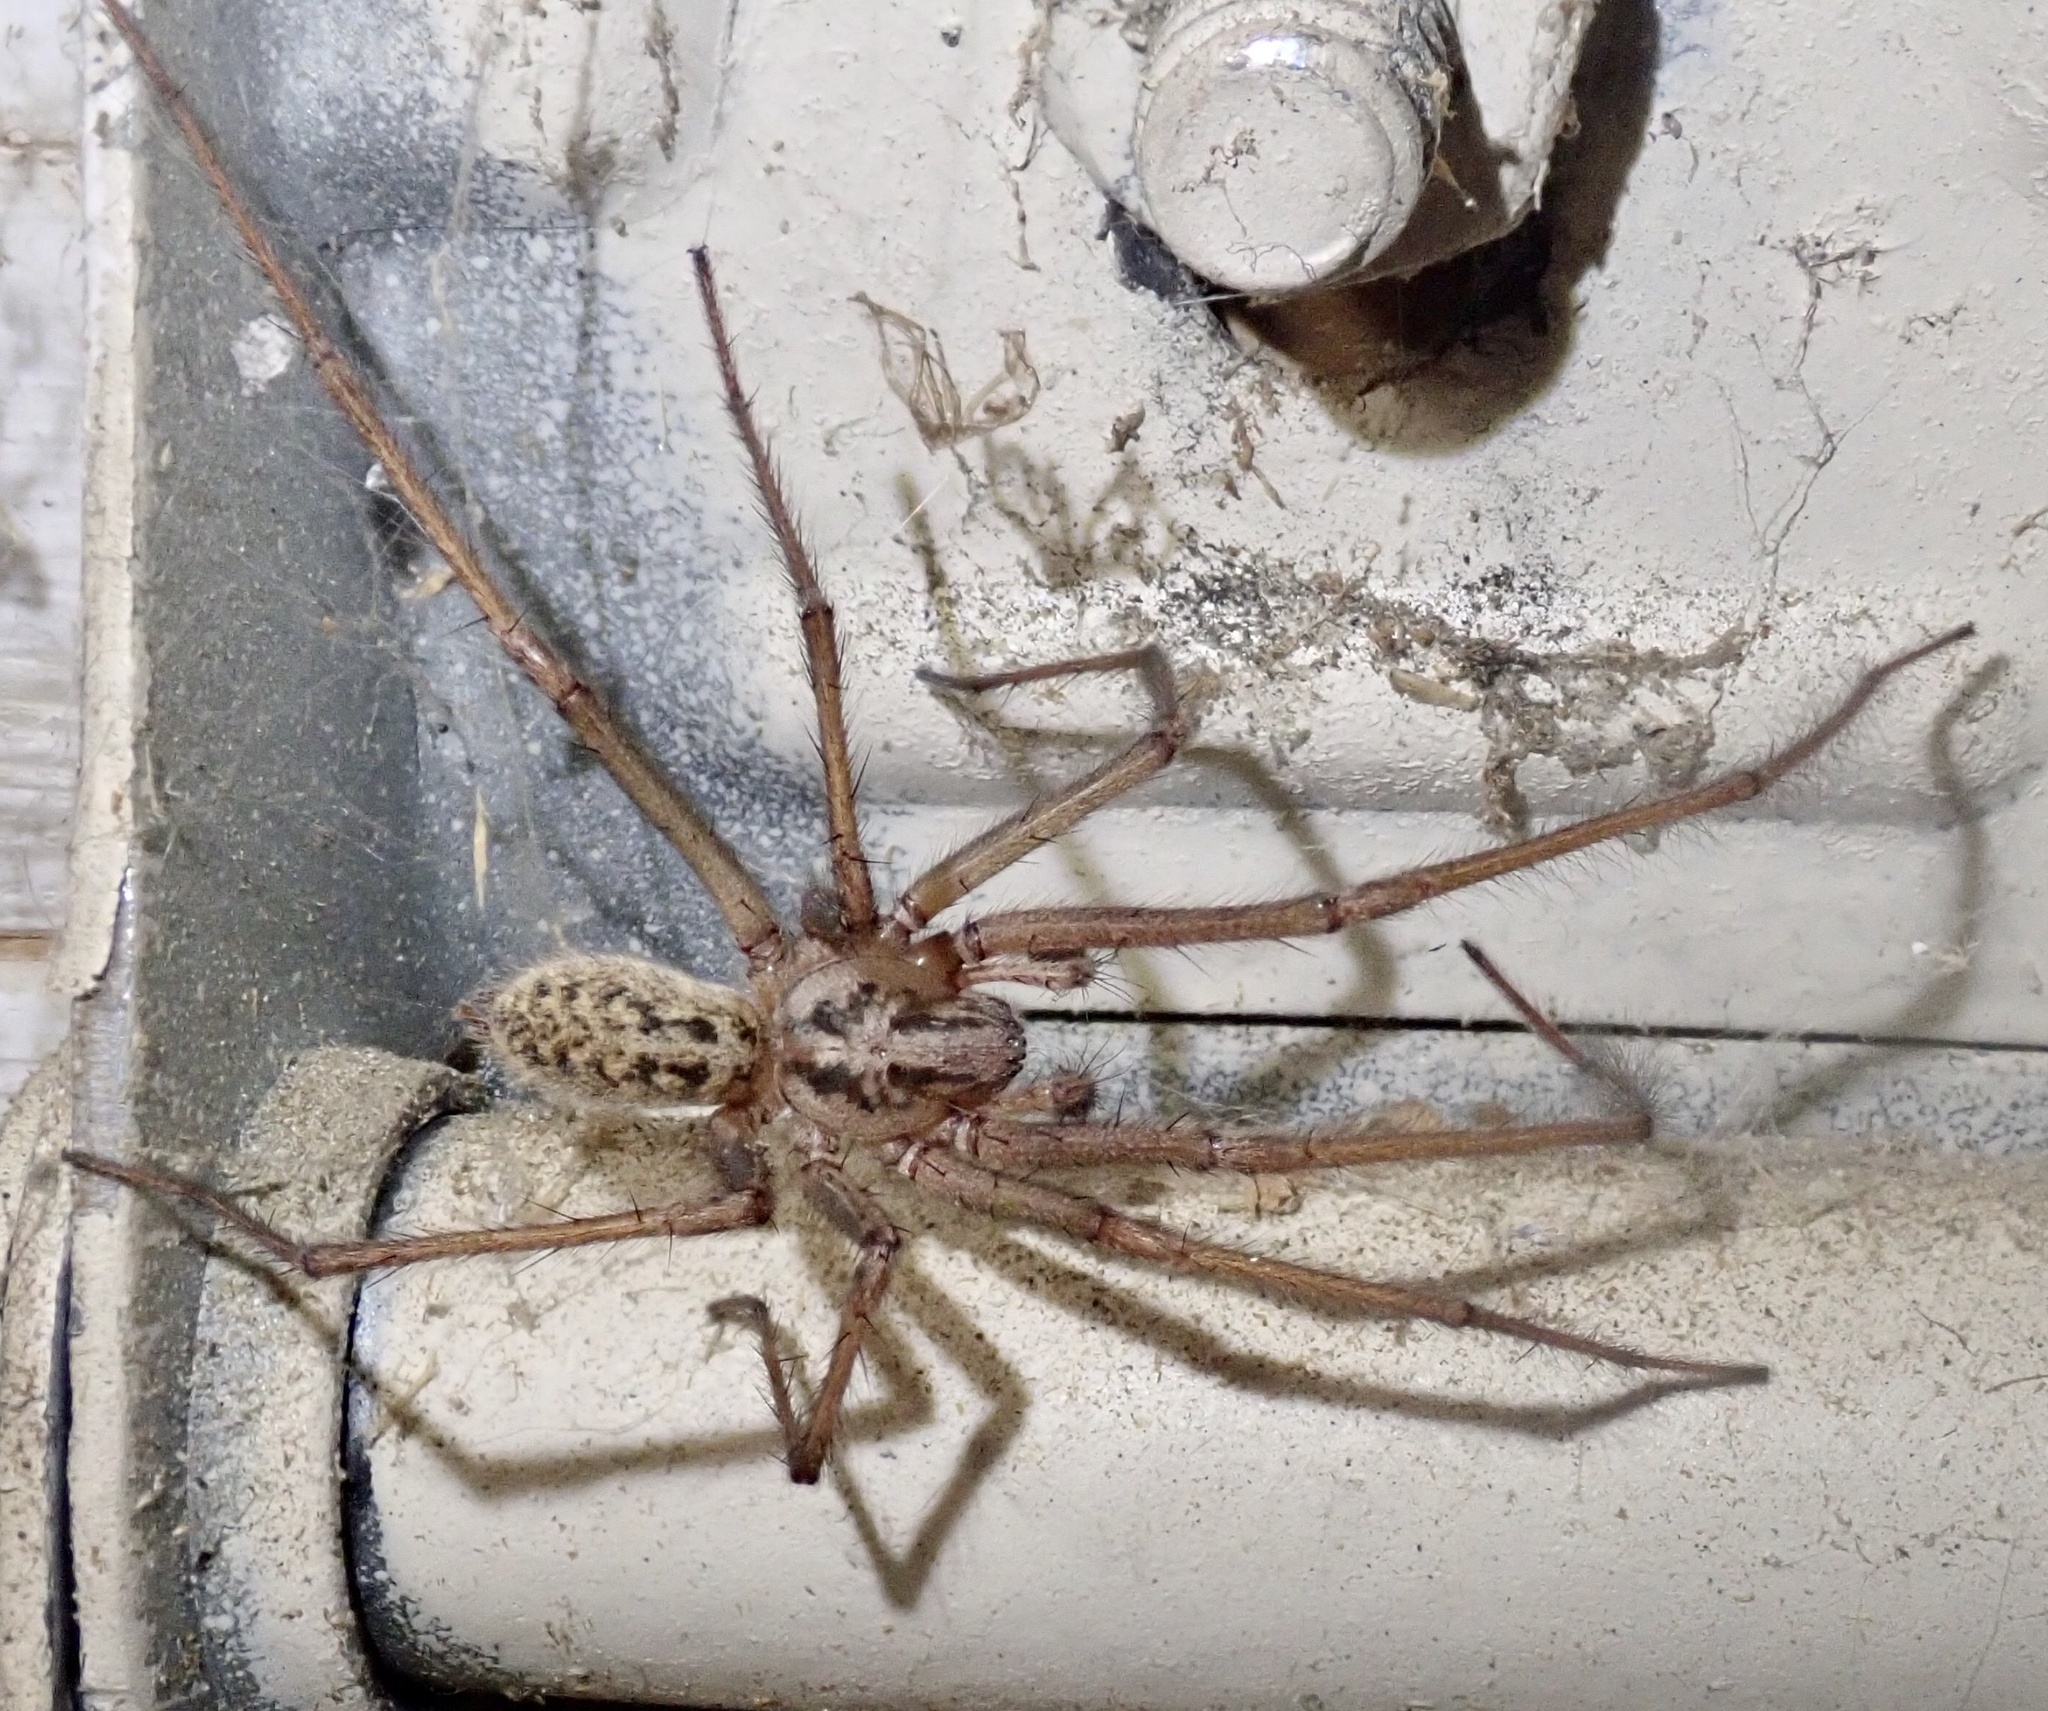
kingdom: Animalia
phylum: Arthropoda
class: Arachnida
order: Araneae
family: Agelenidae
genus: Eratigena
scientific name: Eratigena duellica
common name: Giant house spider
